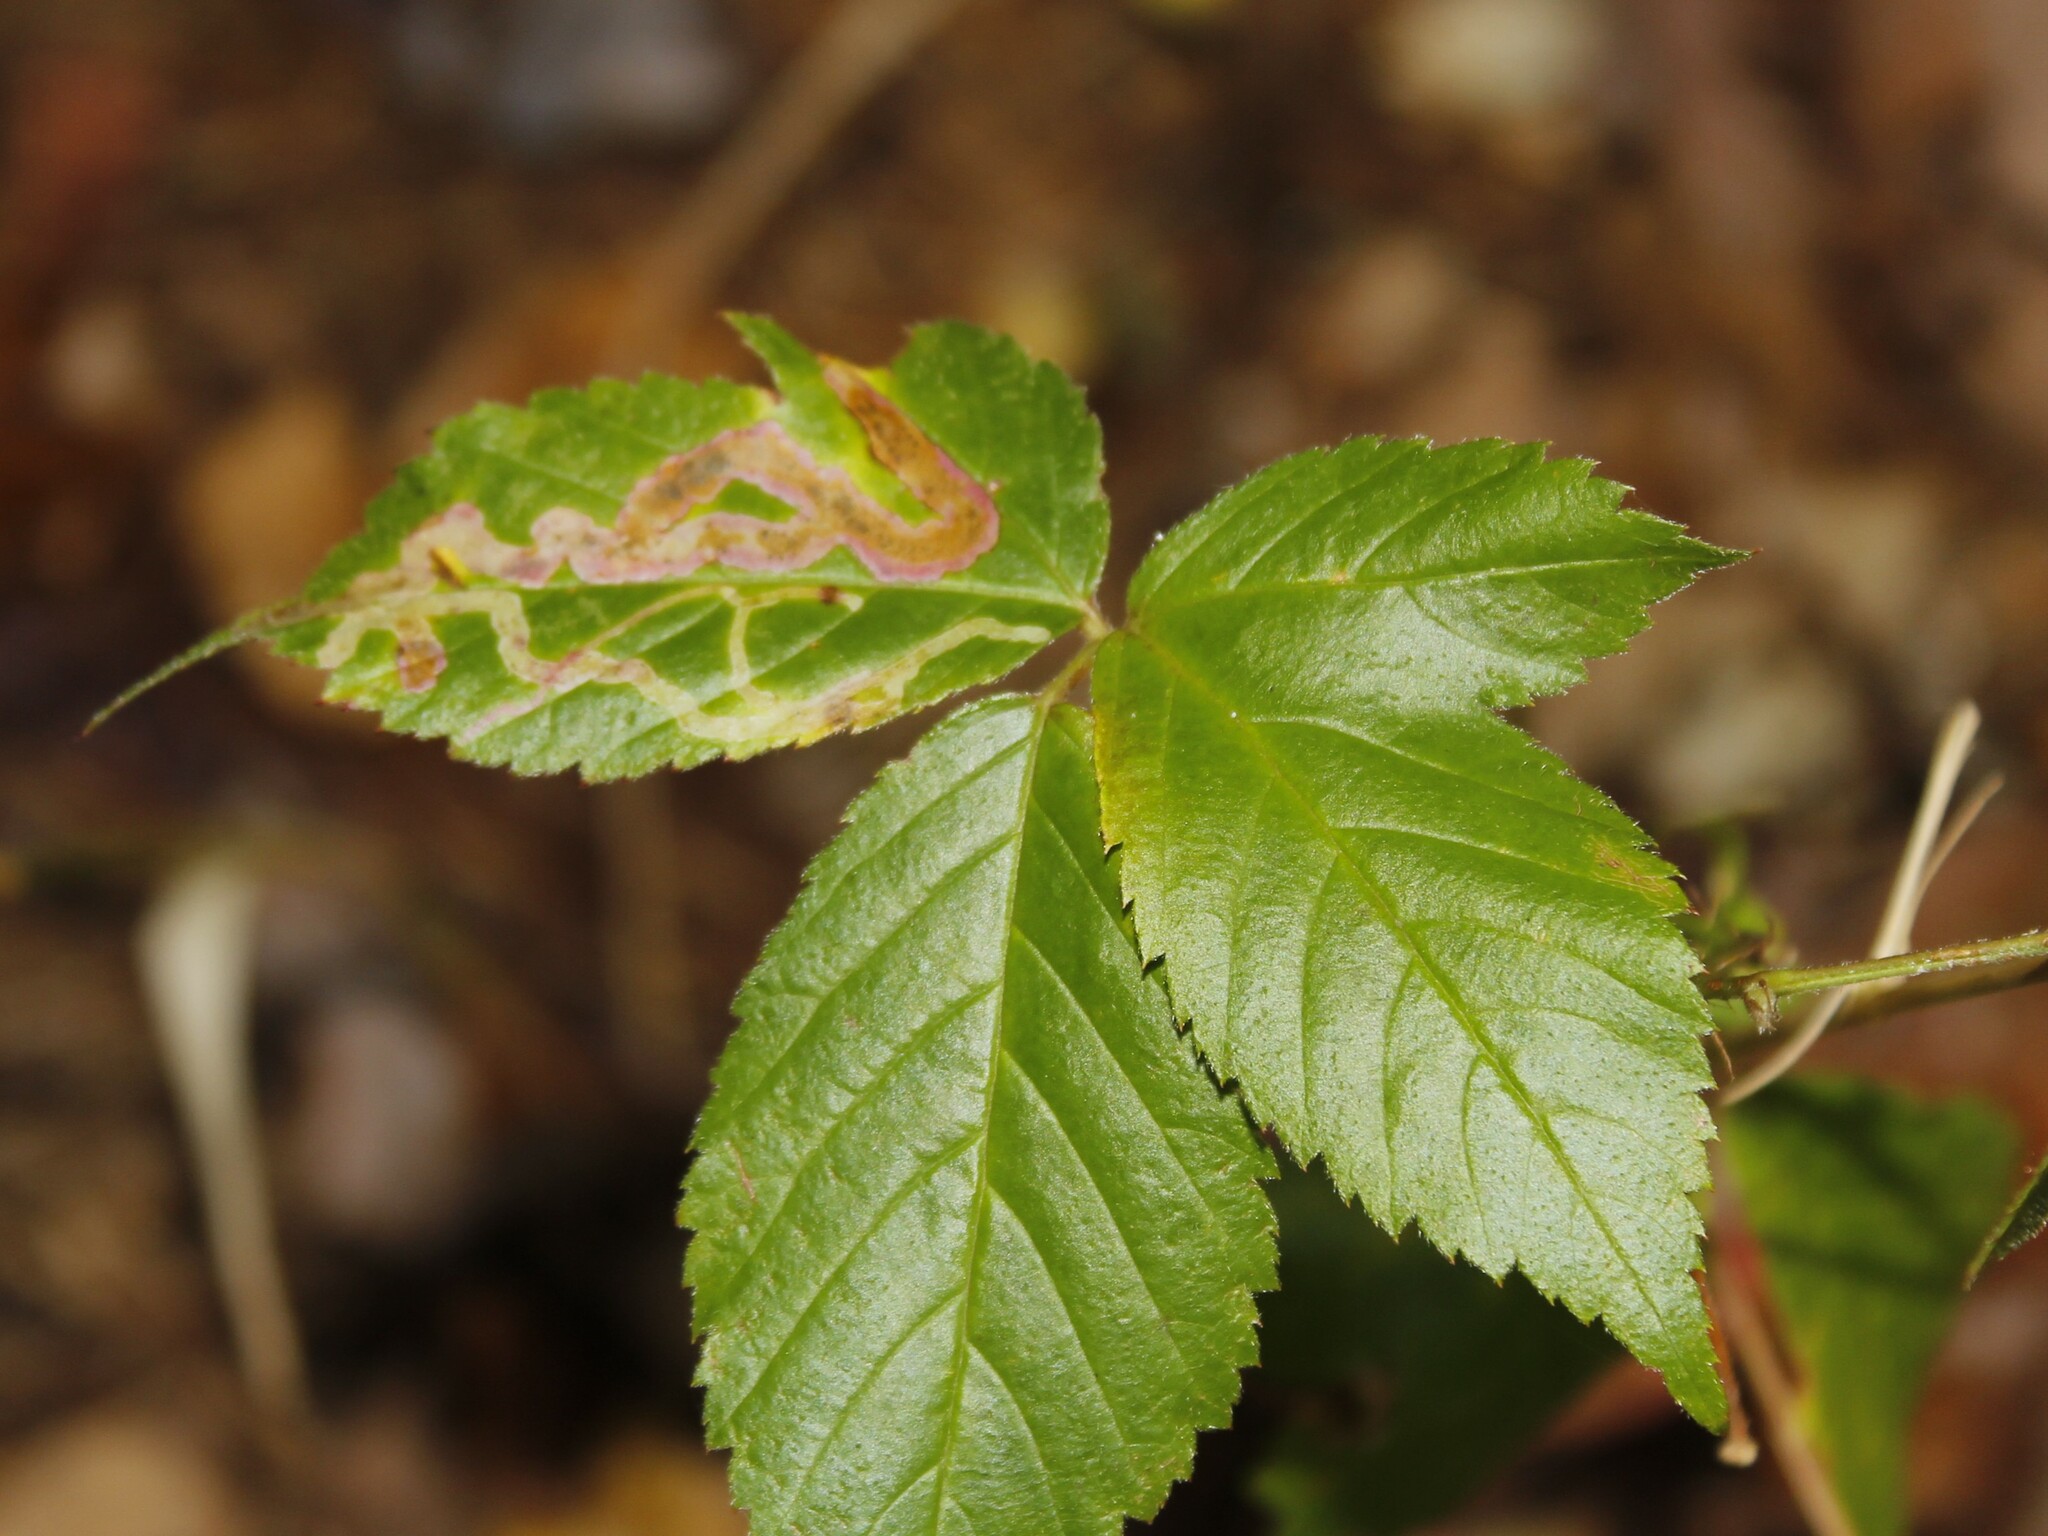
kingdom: Animalia
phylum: Arthropoda
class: Insecta
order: Diptera
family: Agromyzidae
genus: Agromyza
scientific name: Agromyza vockerothi
